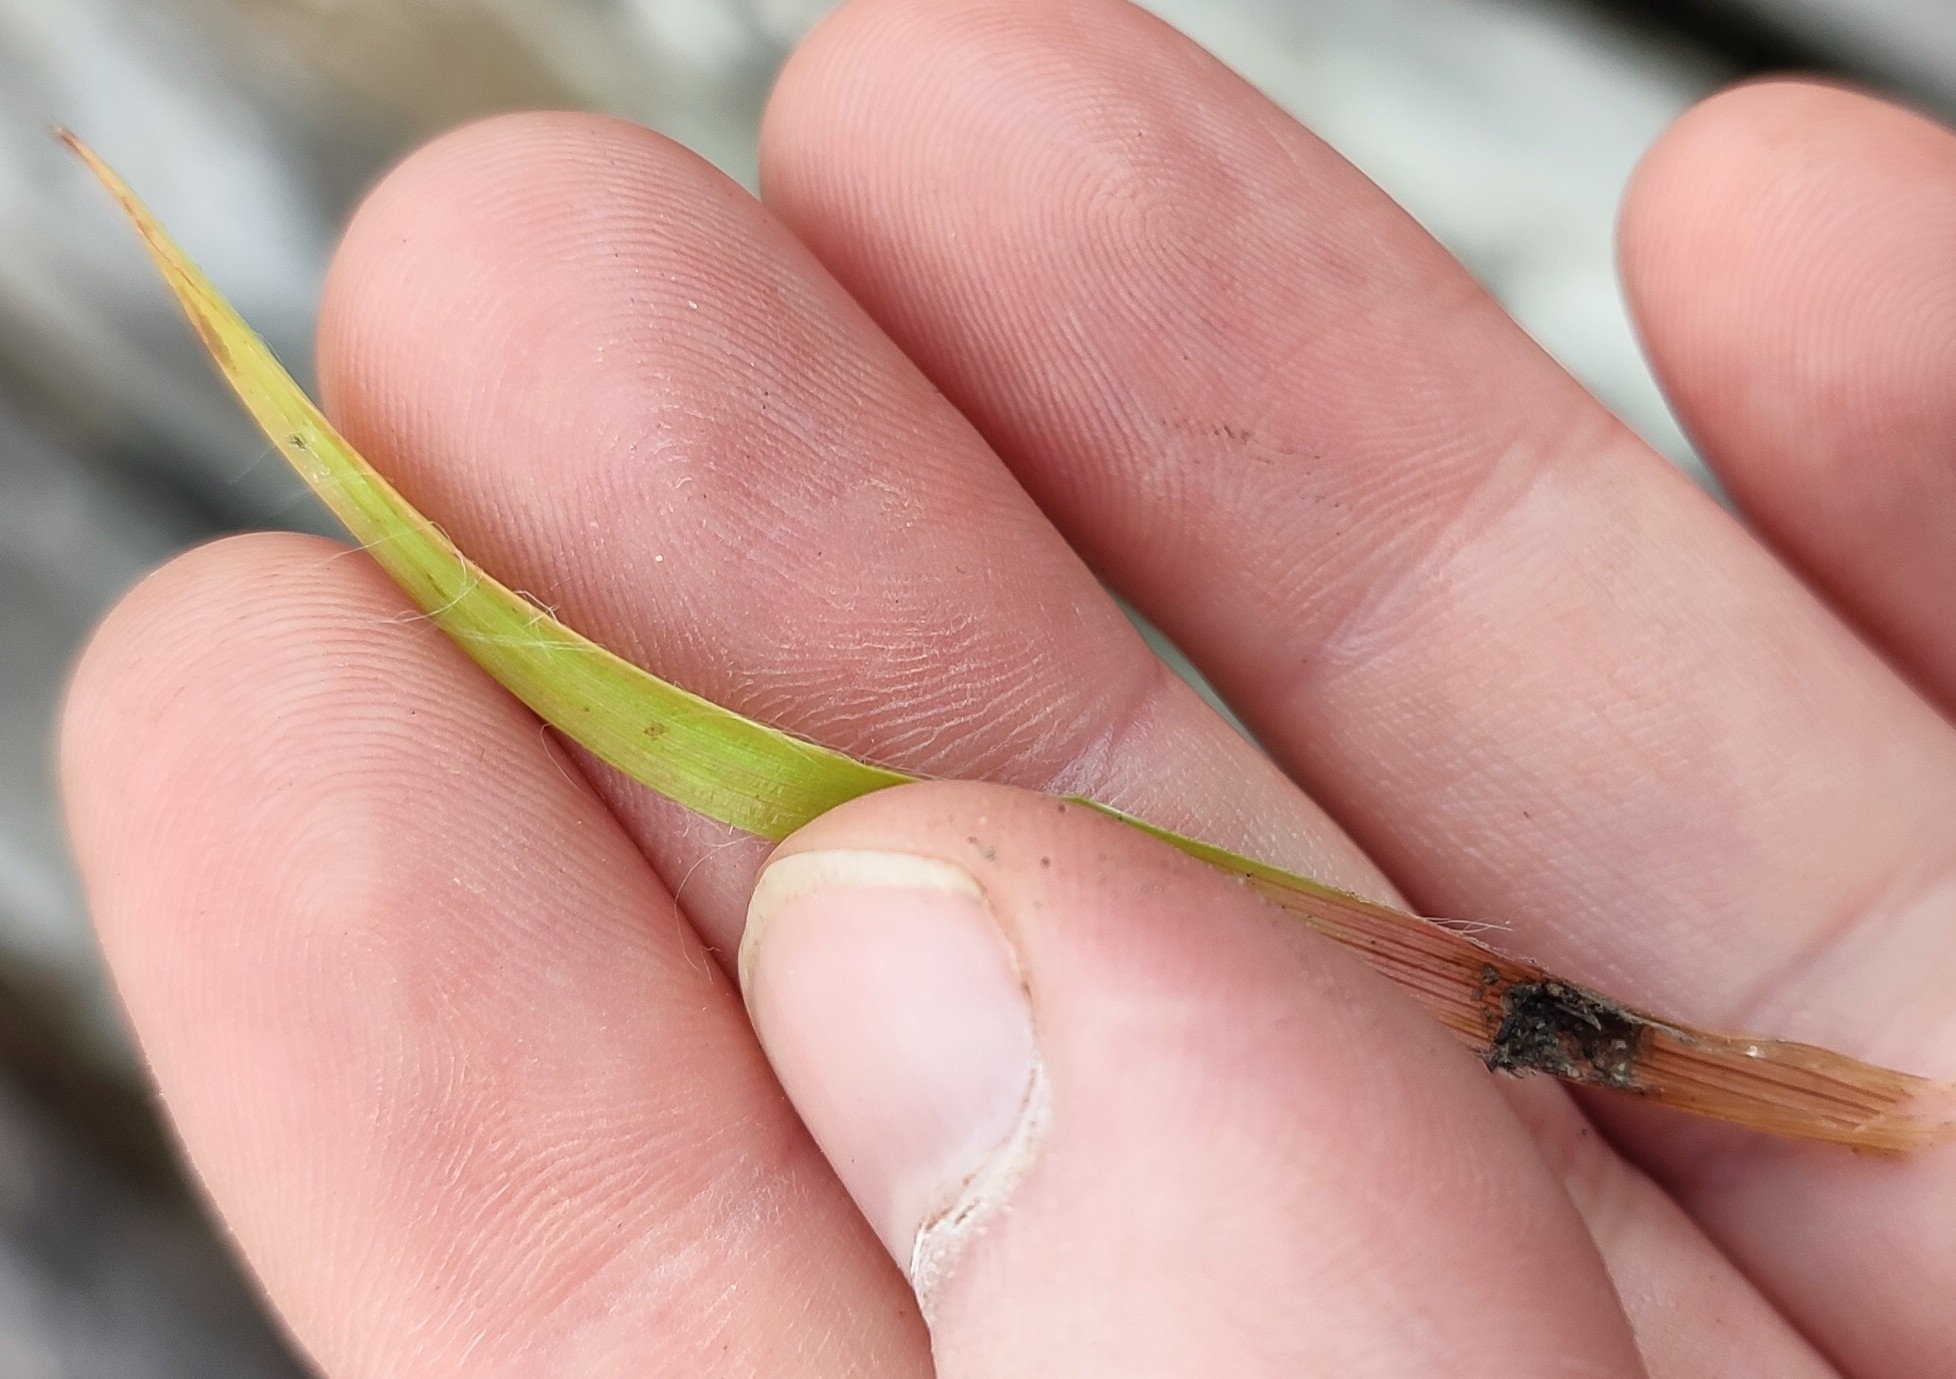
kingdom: Plantae
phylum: Tracheophyta
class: Liliopsida
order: Poales
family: Juncaceae
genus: Luzula
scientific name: Luzula pilosa
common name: Hairy wood-rush
